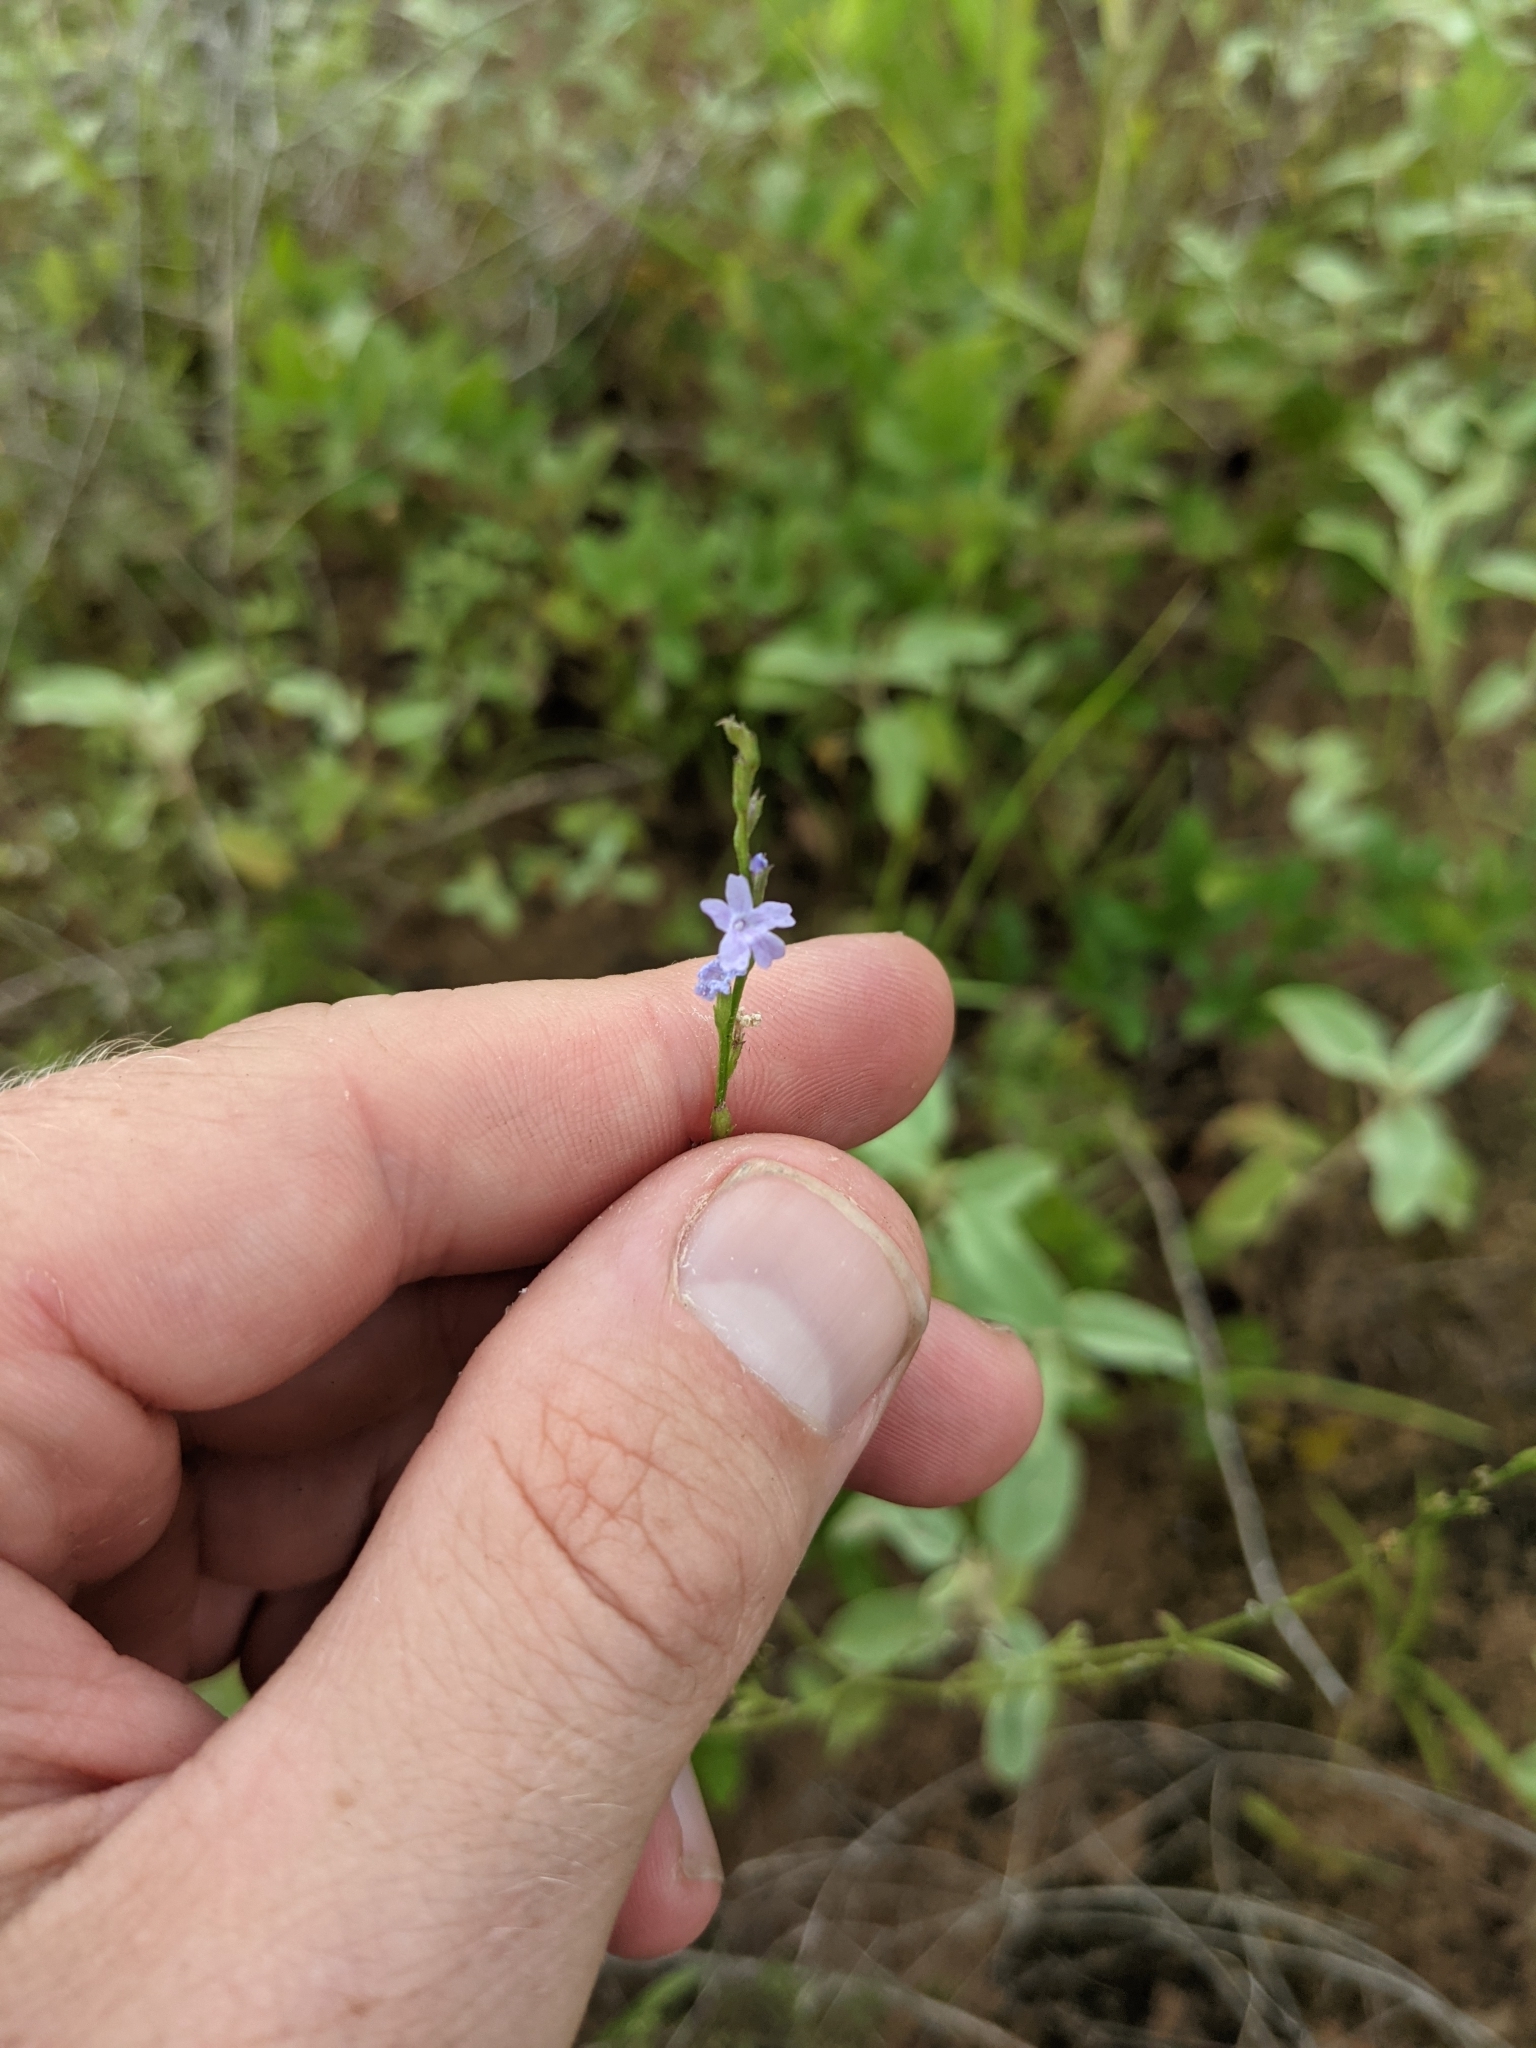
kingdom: Plantae
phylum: Tracheophyta
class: Magnoliopsida
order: Lamiales
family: Verbenaceae
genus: Verbena
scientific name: Verbena halei
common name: Texas vervain
